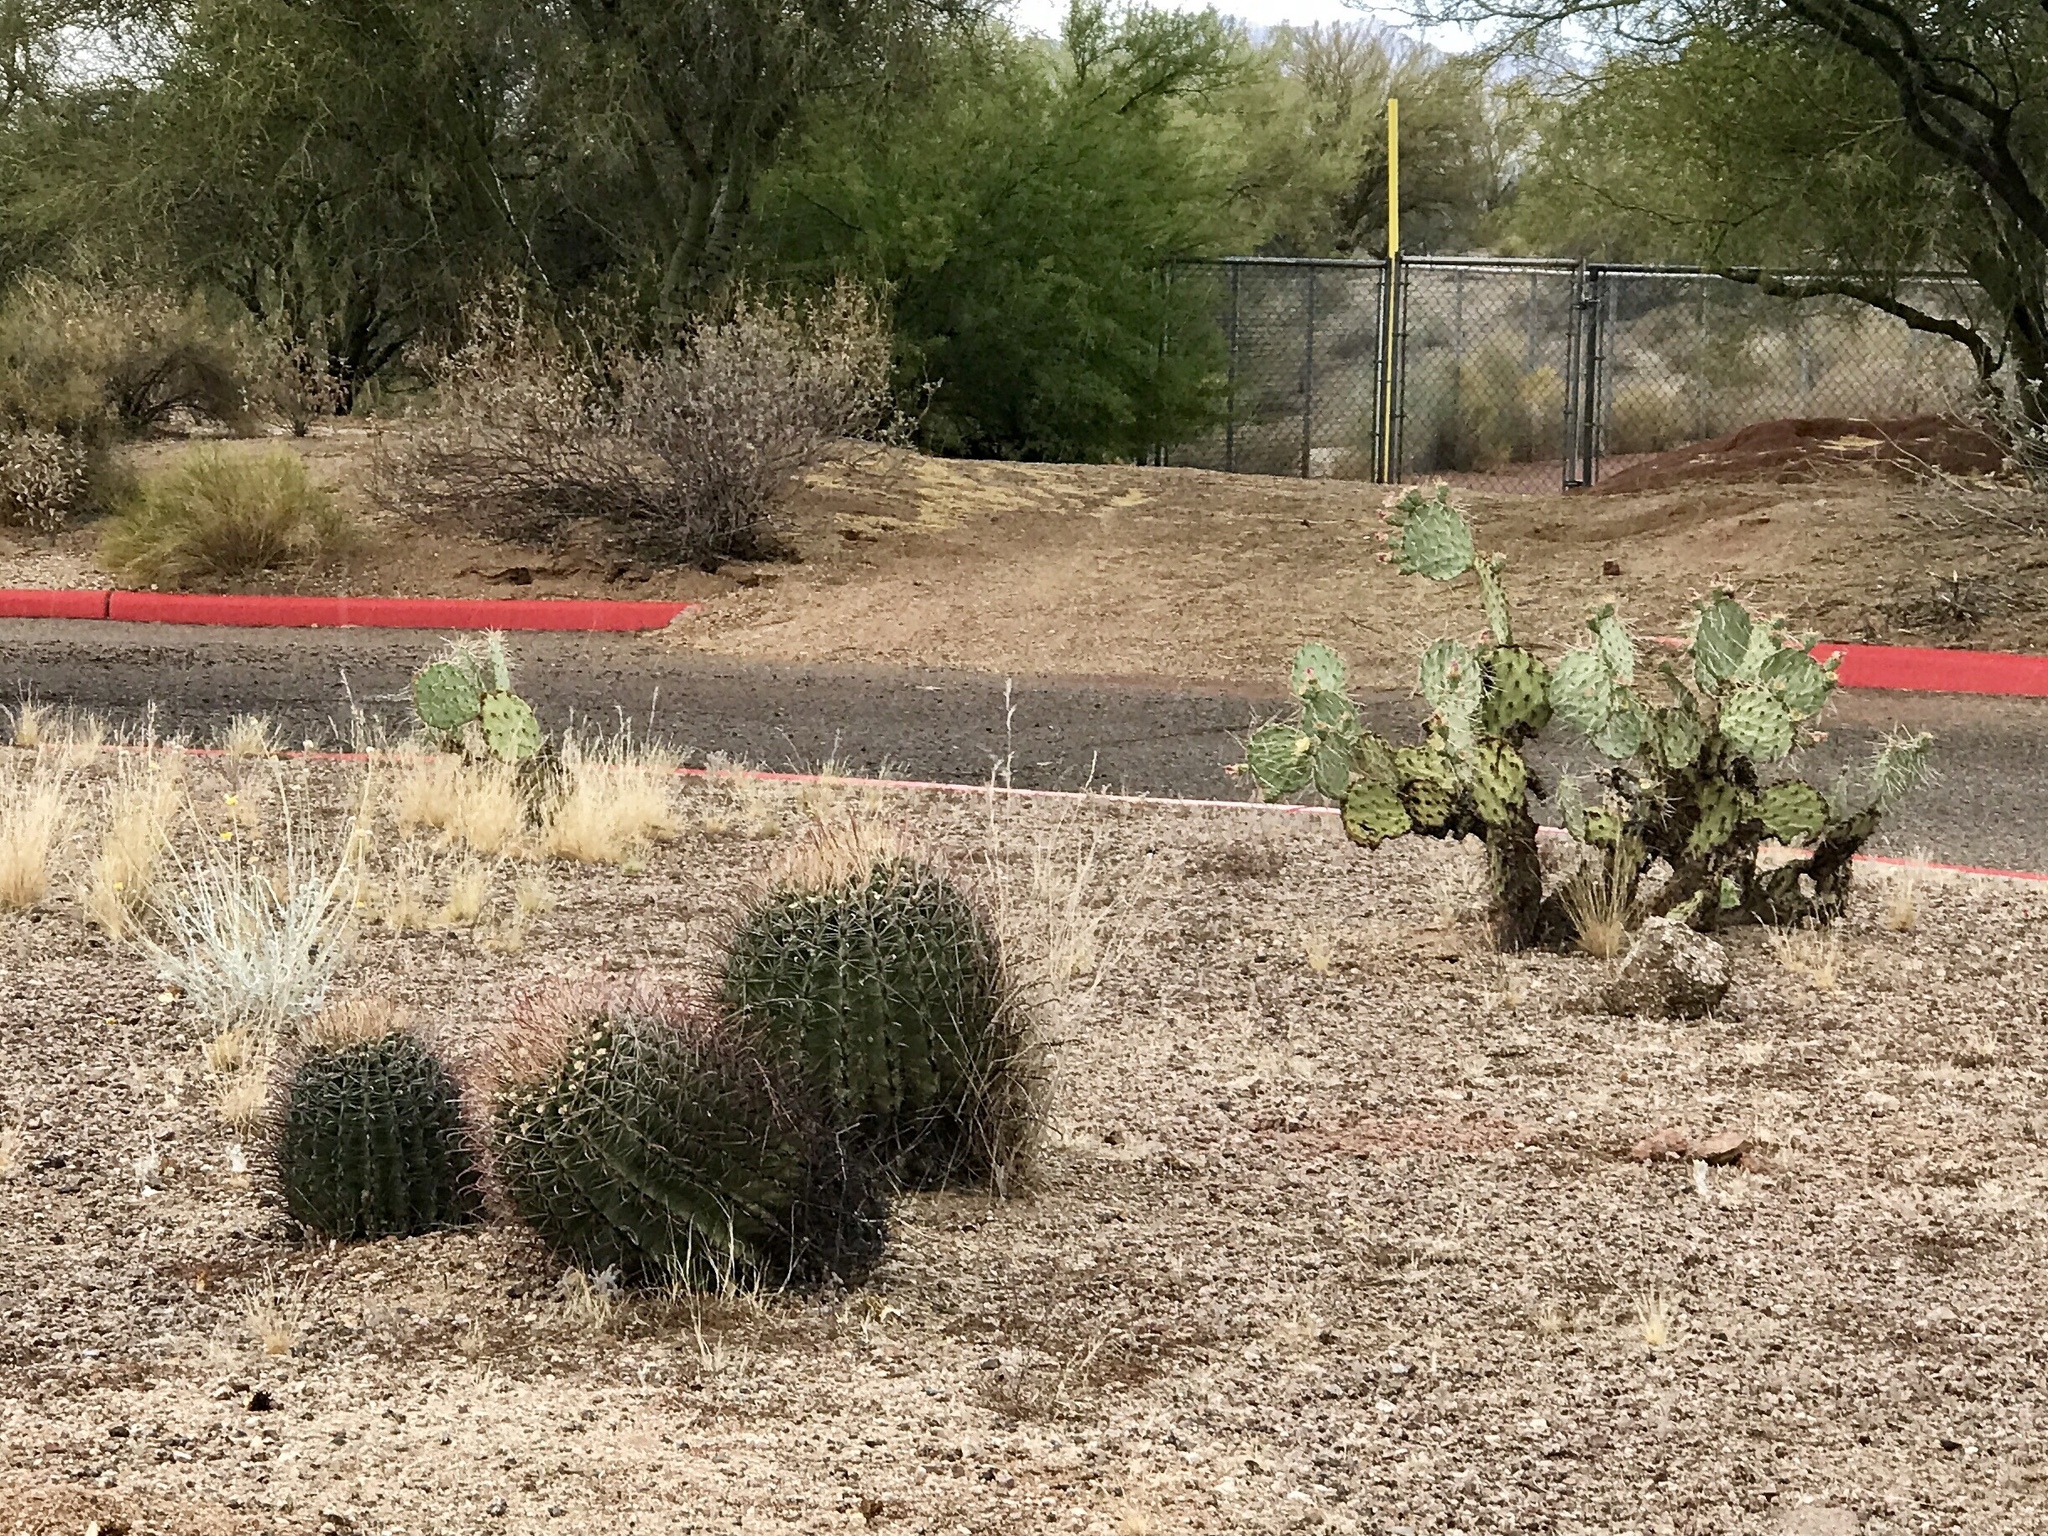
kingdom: Plantae
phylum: Tracheophyta
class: Magnoliopsida
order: Caryophyllales
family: Cactaceae
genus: Ferocactus
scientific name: Ferocactus wislizeni
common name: Candy barrel cactus
